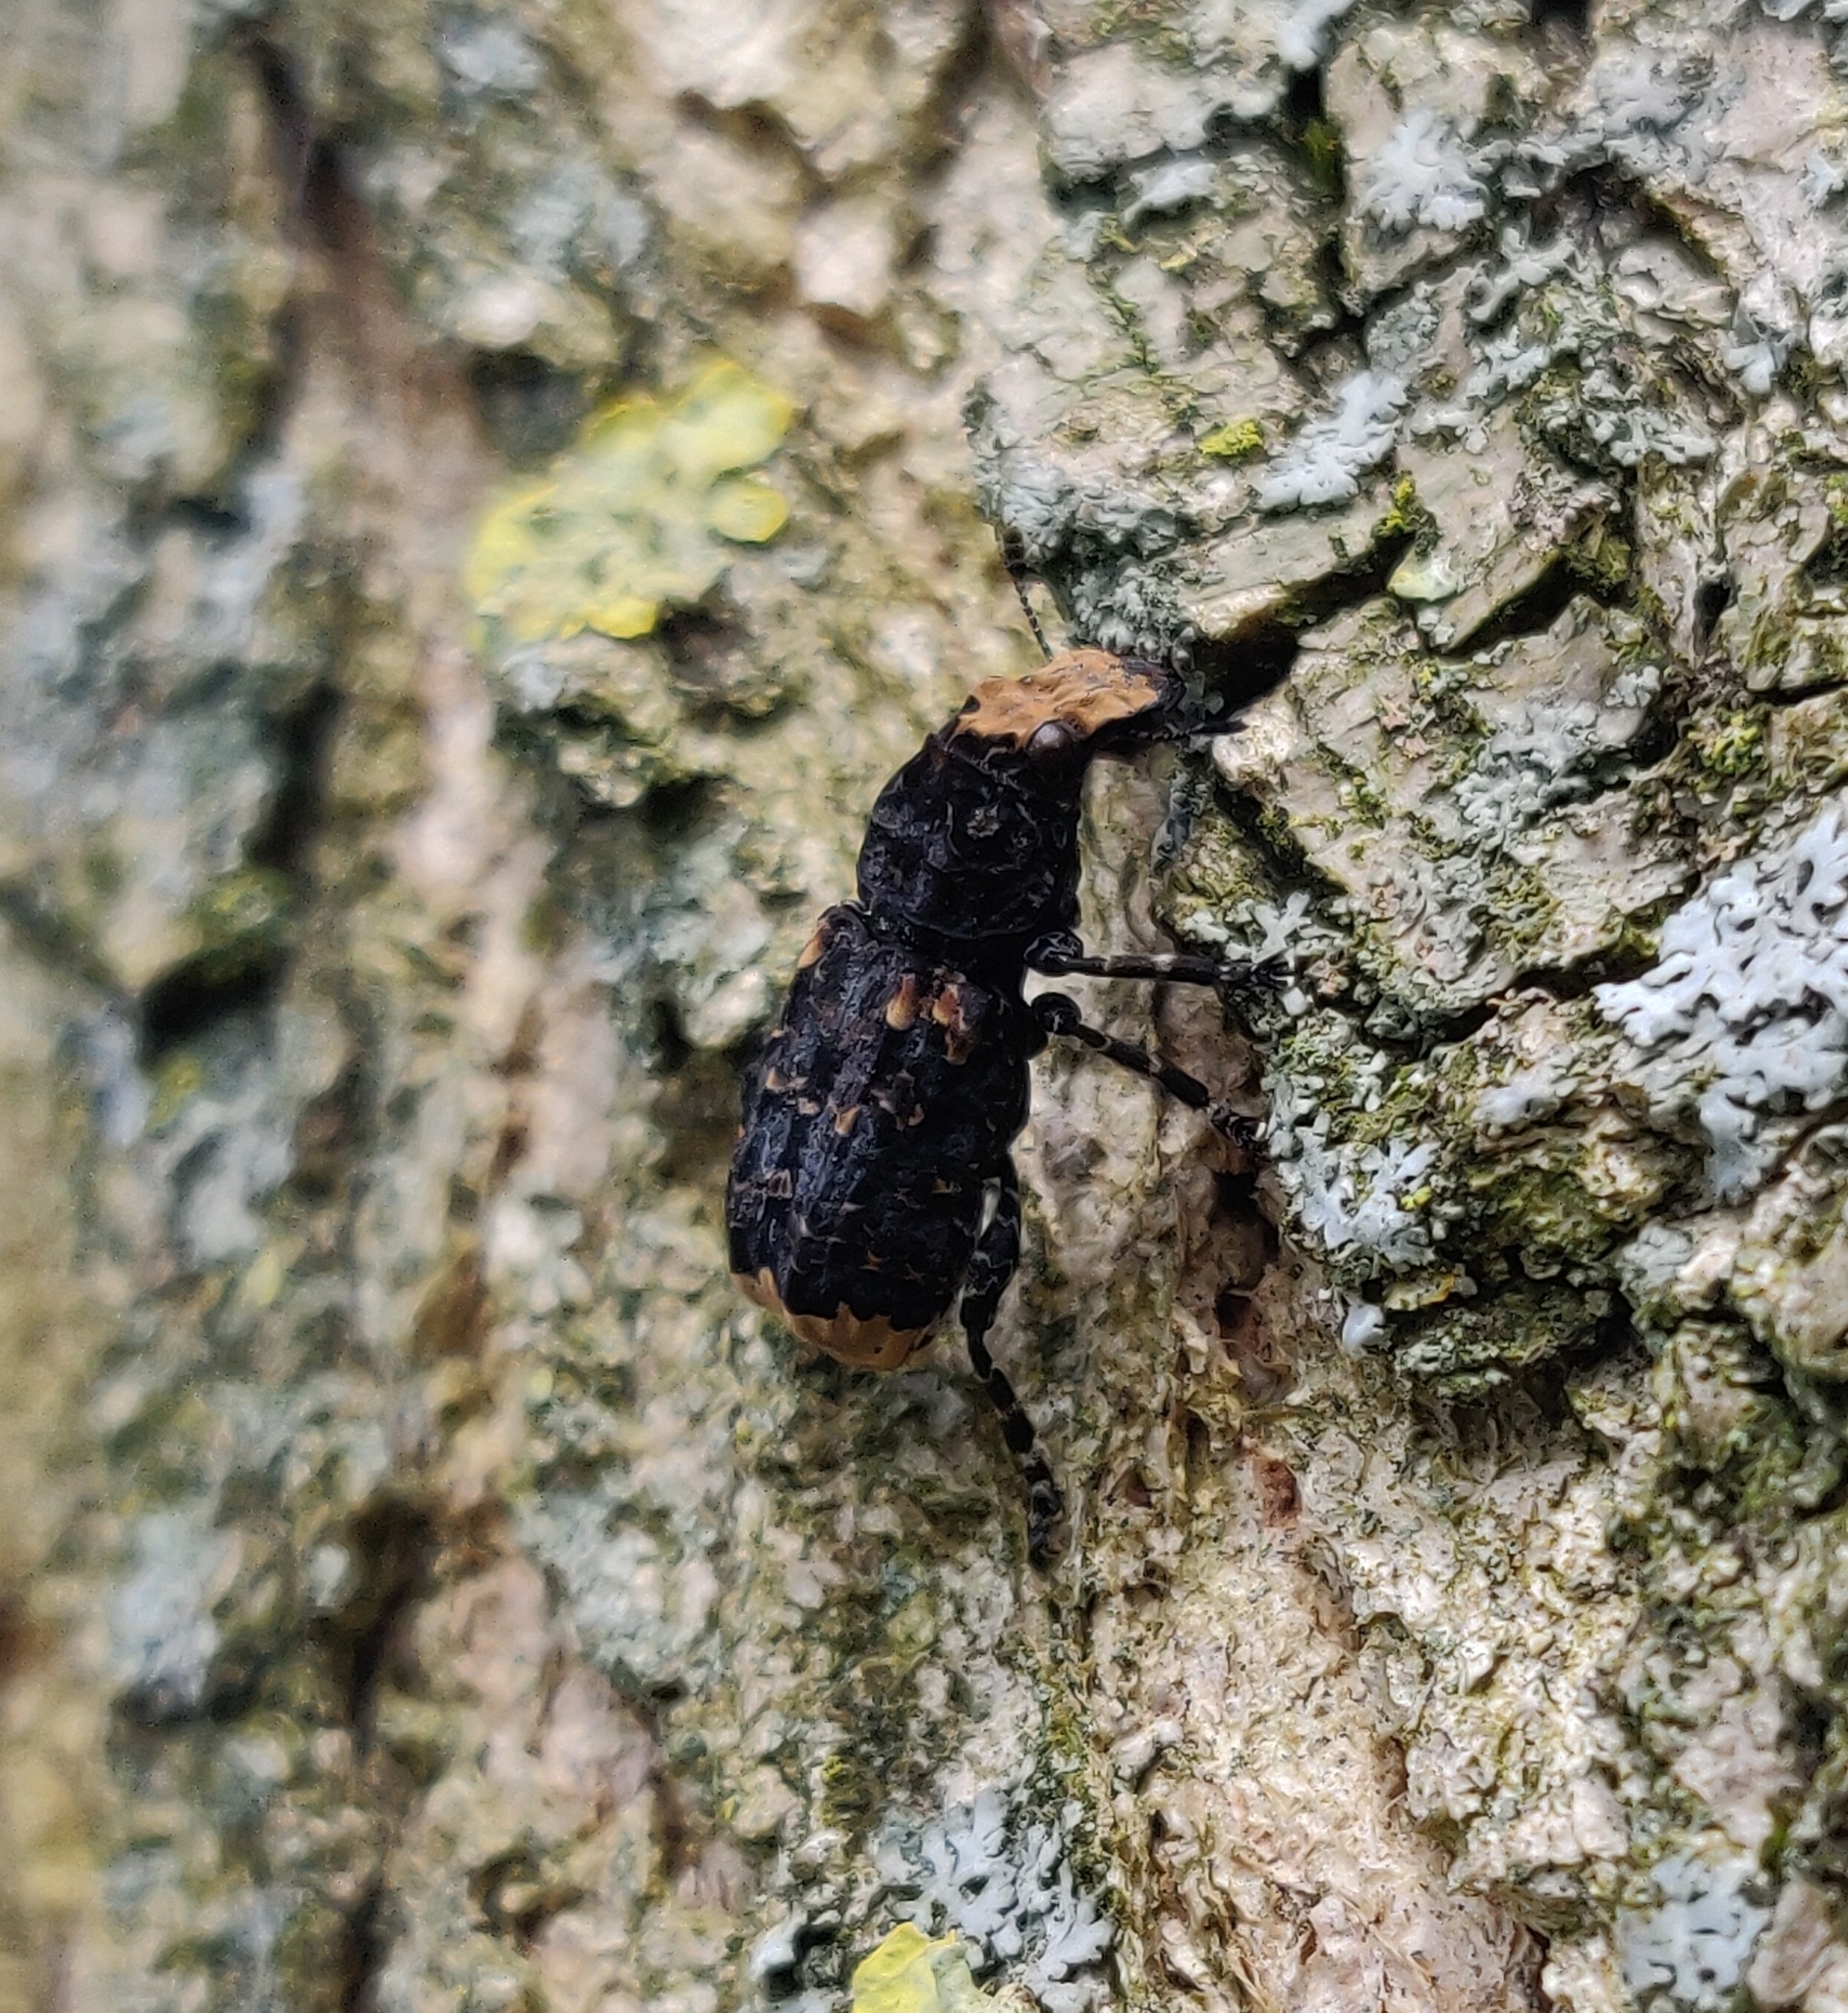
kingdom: Animalia
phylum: Arthropoda
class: Insecta
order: Coleoptera
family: Anthribidae
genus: Platyrhinus
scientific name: Platyrhinus resinosus
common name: Cramp-ball fungus weevil
